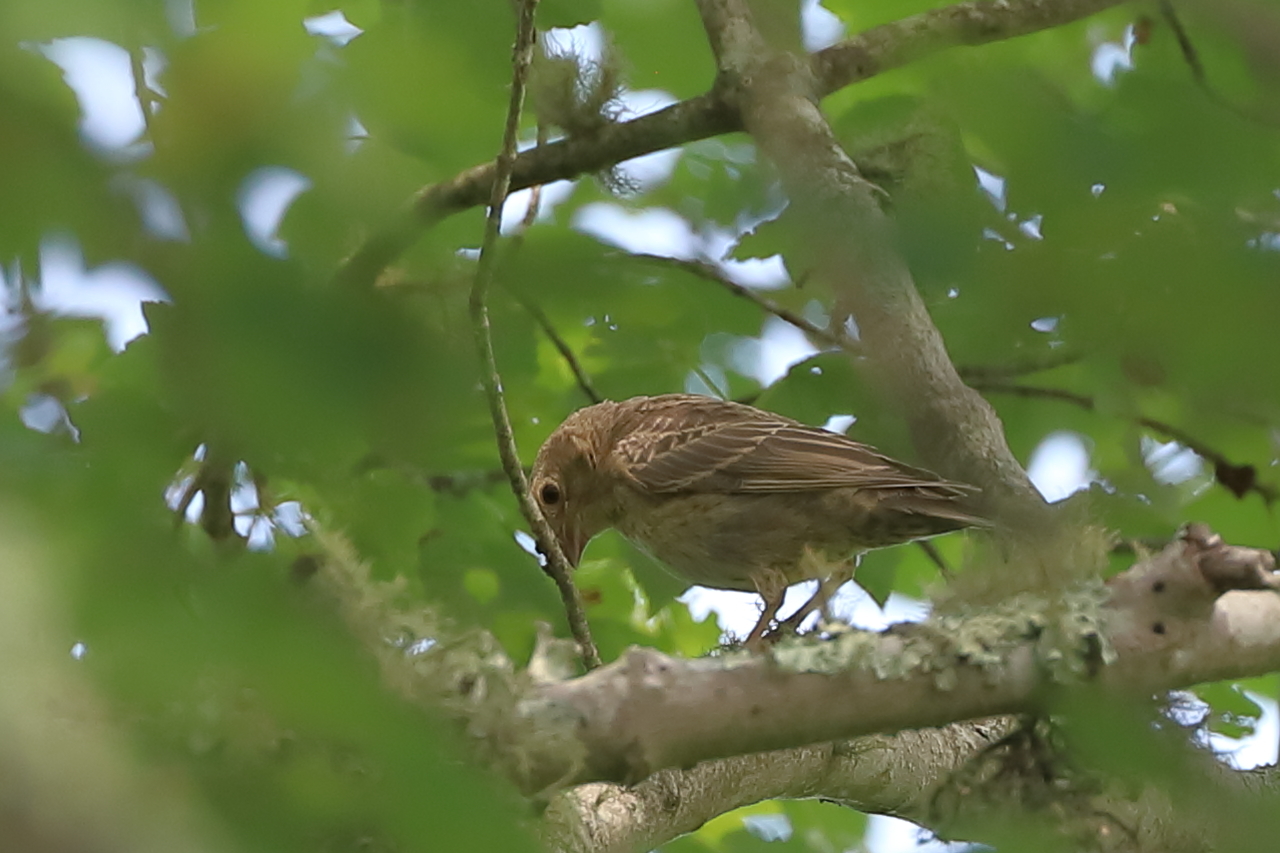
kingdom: Animalia
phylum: Chordata
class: Aves
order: Passeriformes
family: Icteridae
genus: Molothrus
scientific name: Molothrus ater
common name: Brown-headed cowbird
